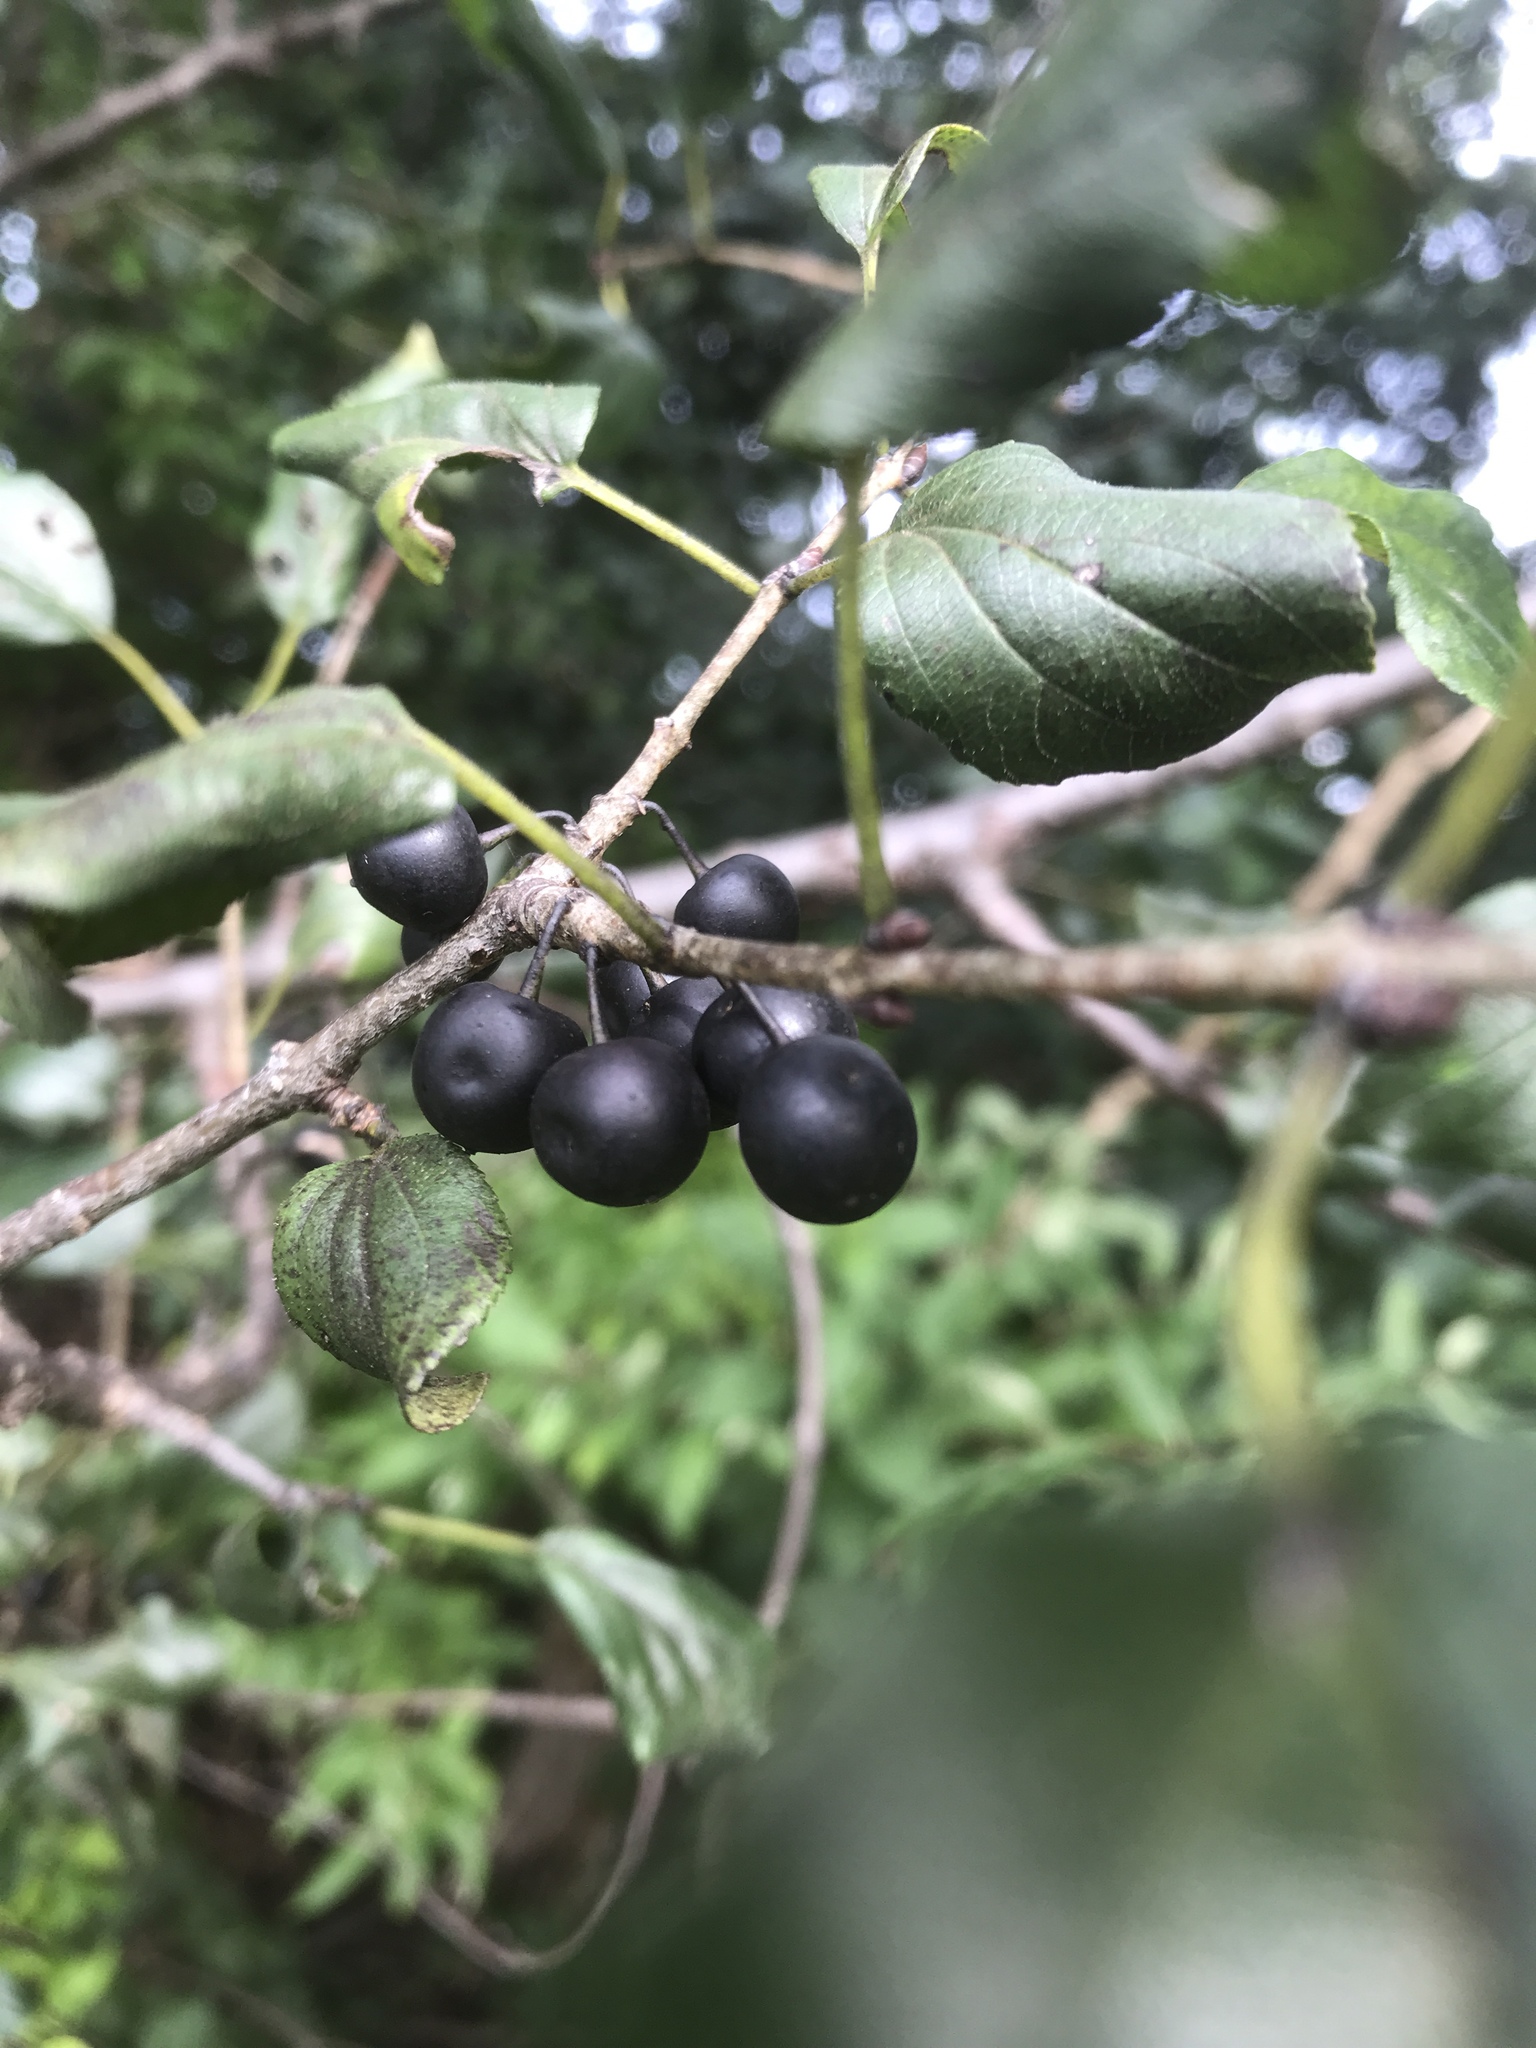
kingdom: Plantae
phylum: Tracheophyta
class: Magnoliopsida
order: Rosales
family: Rhamnaceae
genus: Rhamnus
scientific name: Rhamnus cathartica
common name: Common buckthorn
